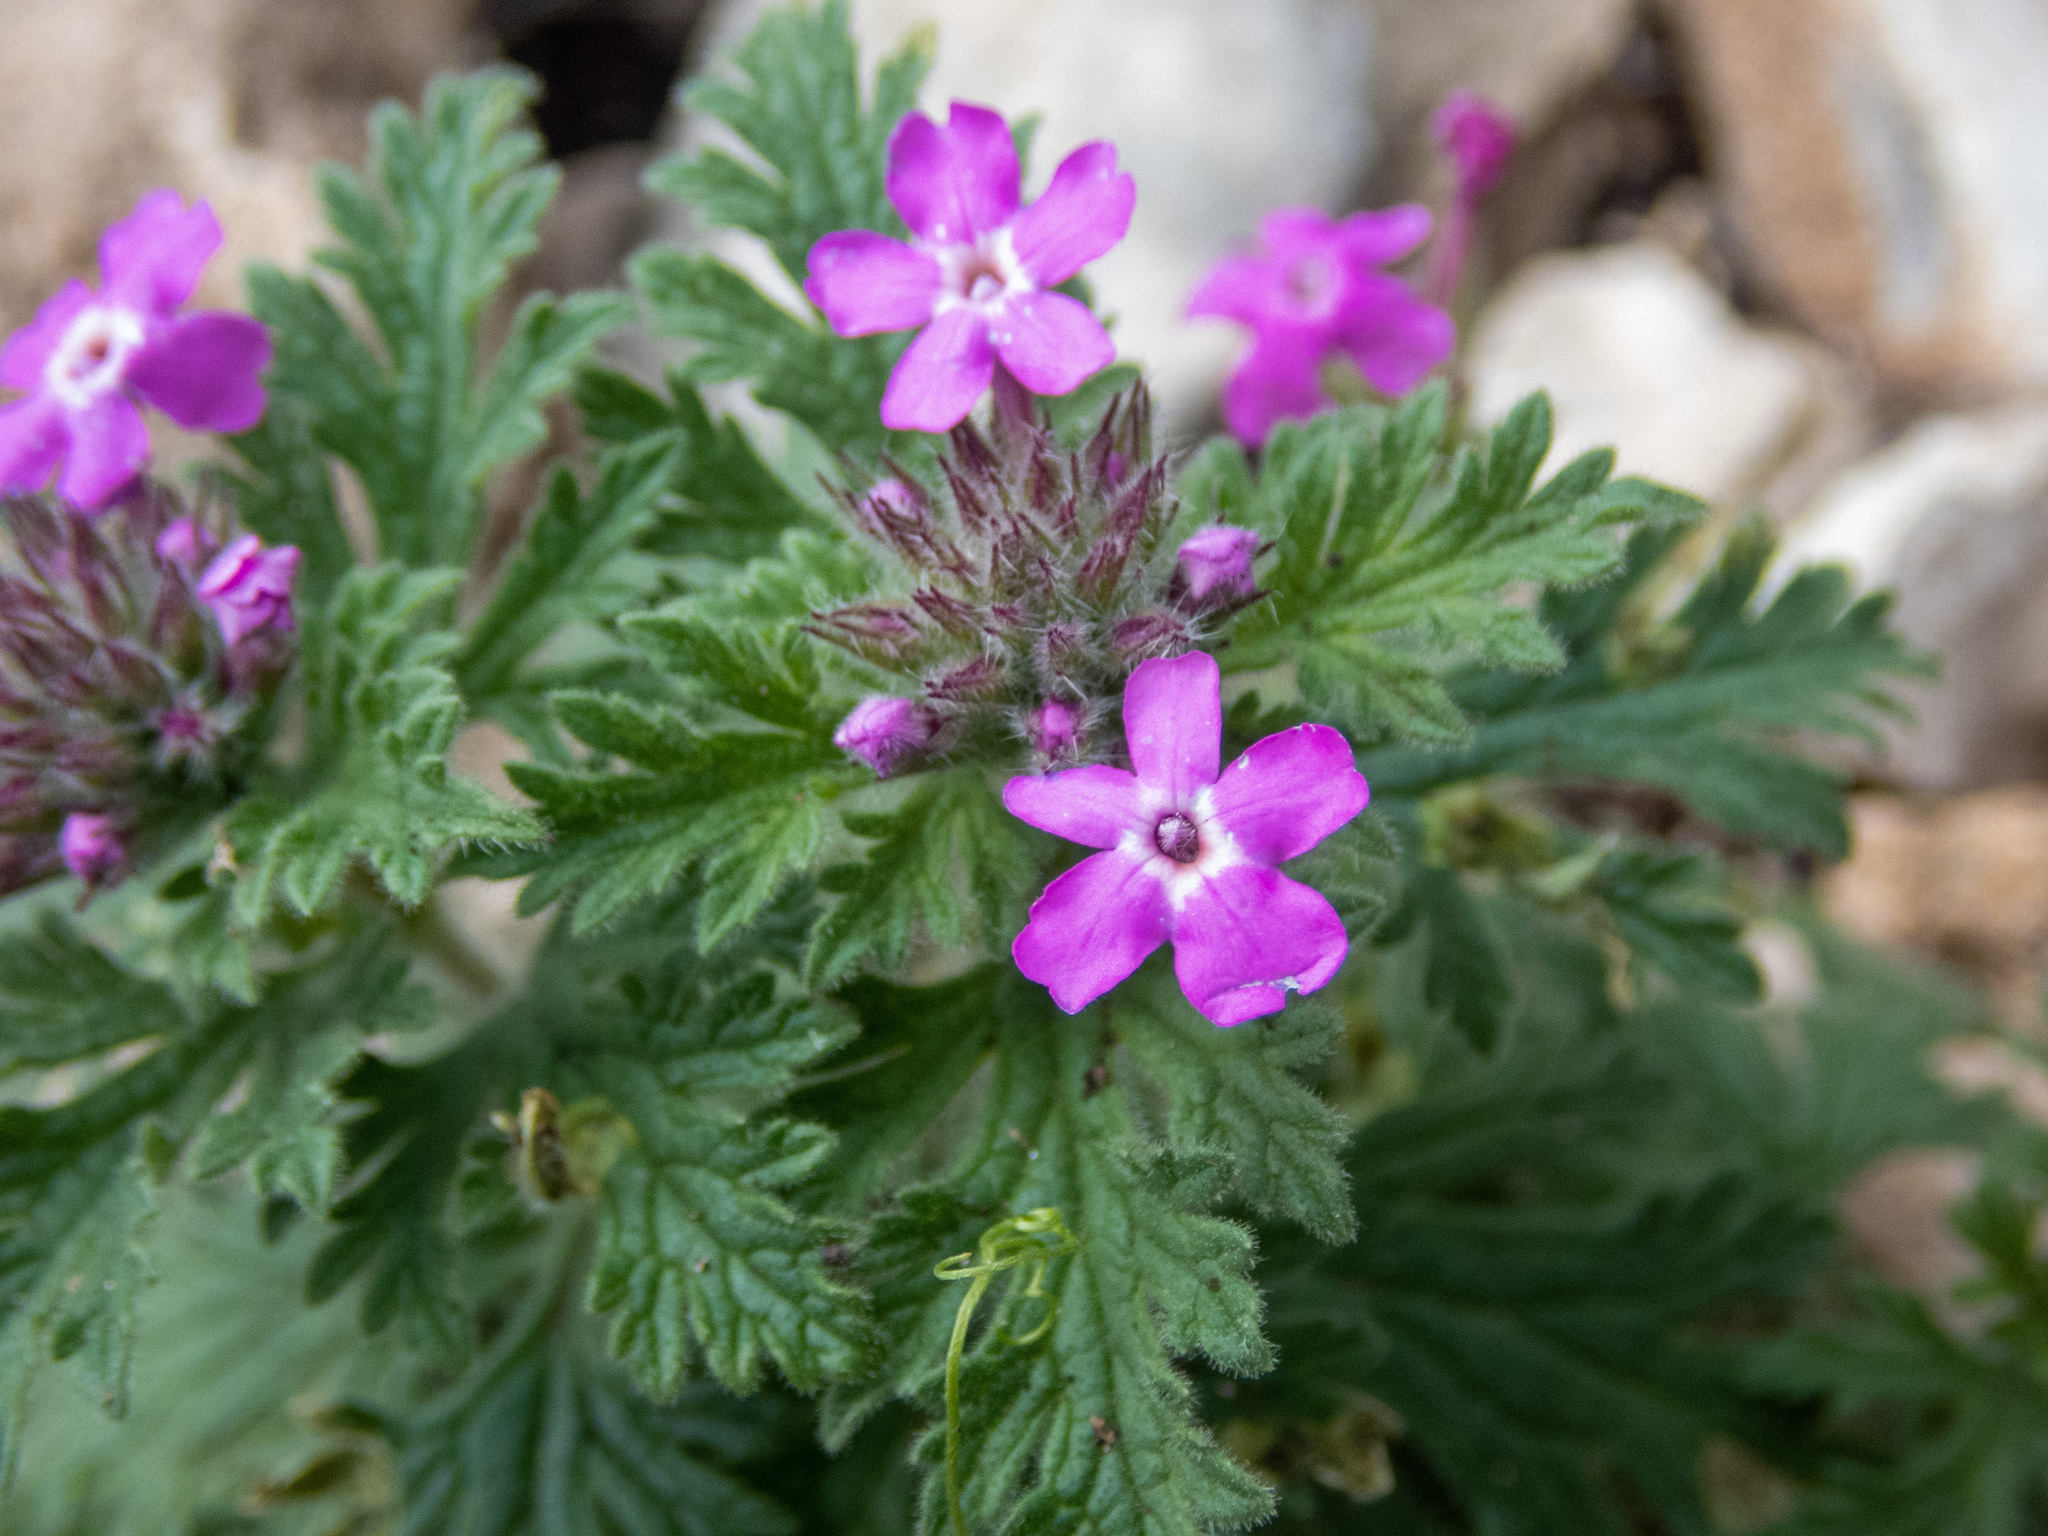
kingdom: Plantae
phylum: Tracheophyta
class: Magnoliopsida
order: Lamiales
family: Verbenaceae
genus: Verbena
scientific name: Verbena pumila
